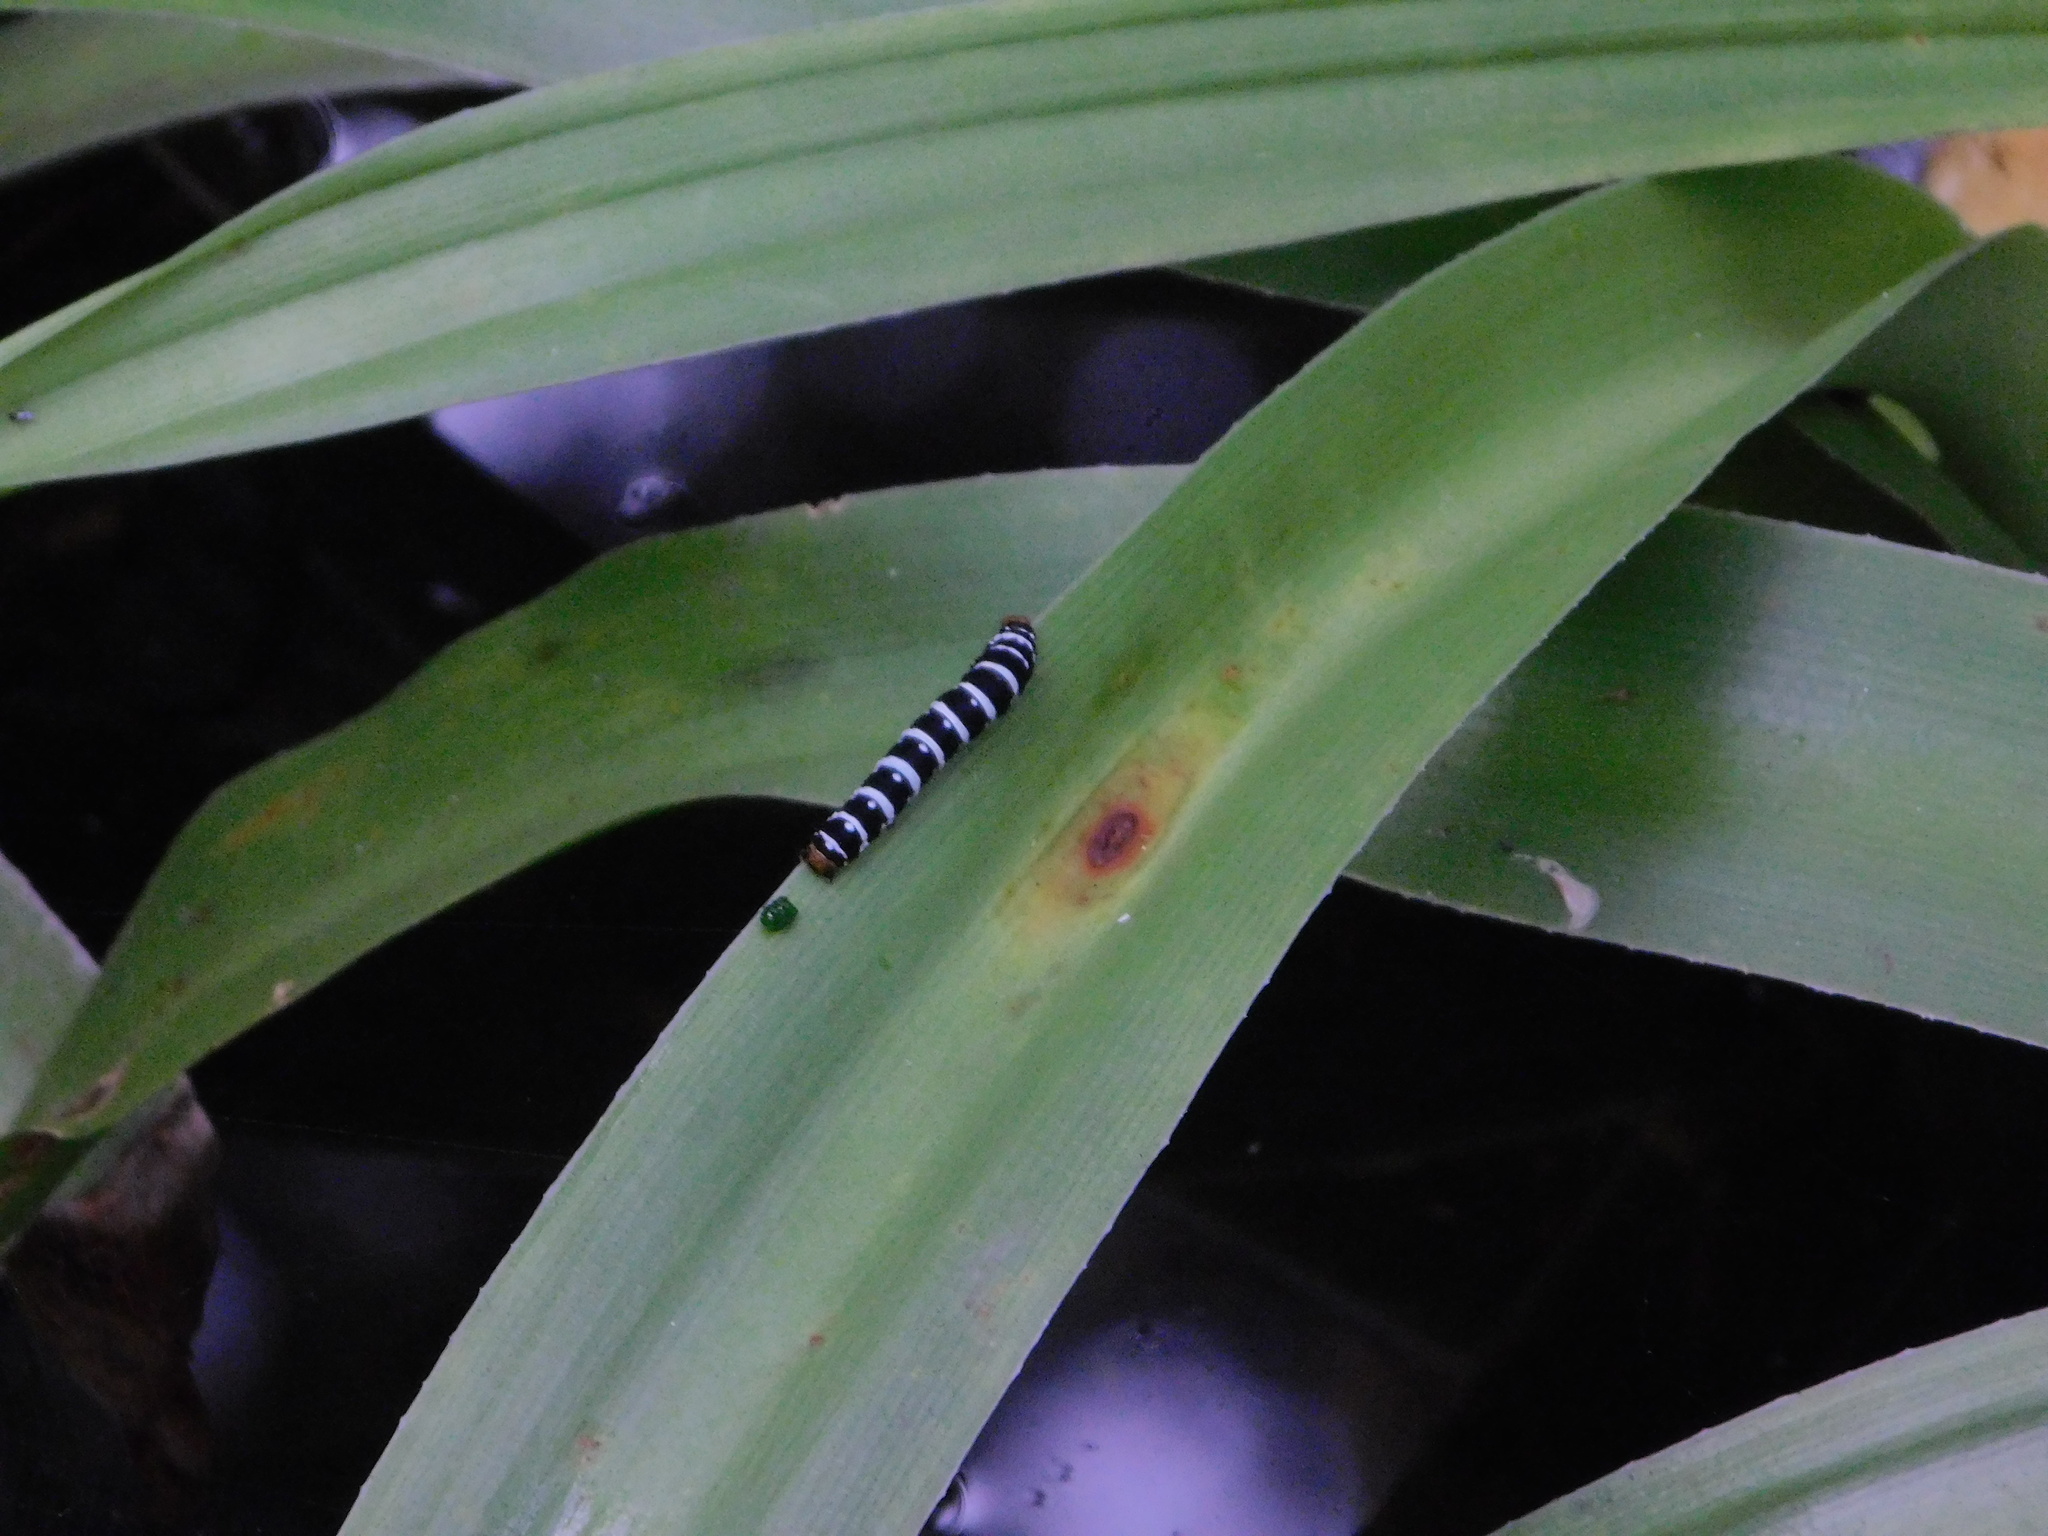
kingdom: Animalia
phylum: Arthropoda
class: Insecta
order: Lepidoptera
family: Noctuidae
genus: Xanthopastis
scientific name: Xanthopastis regnatrix
